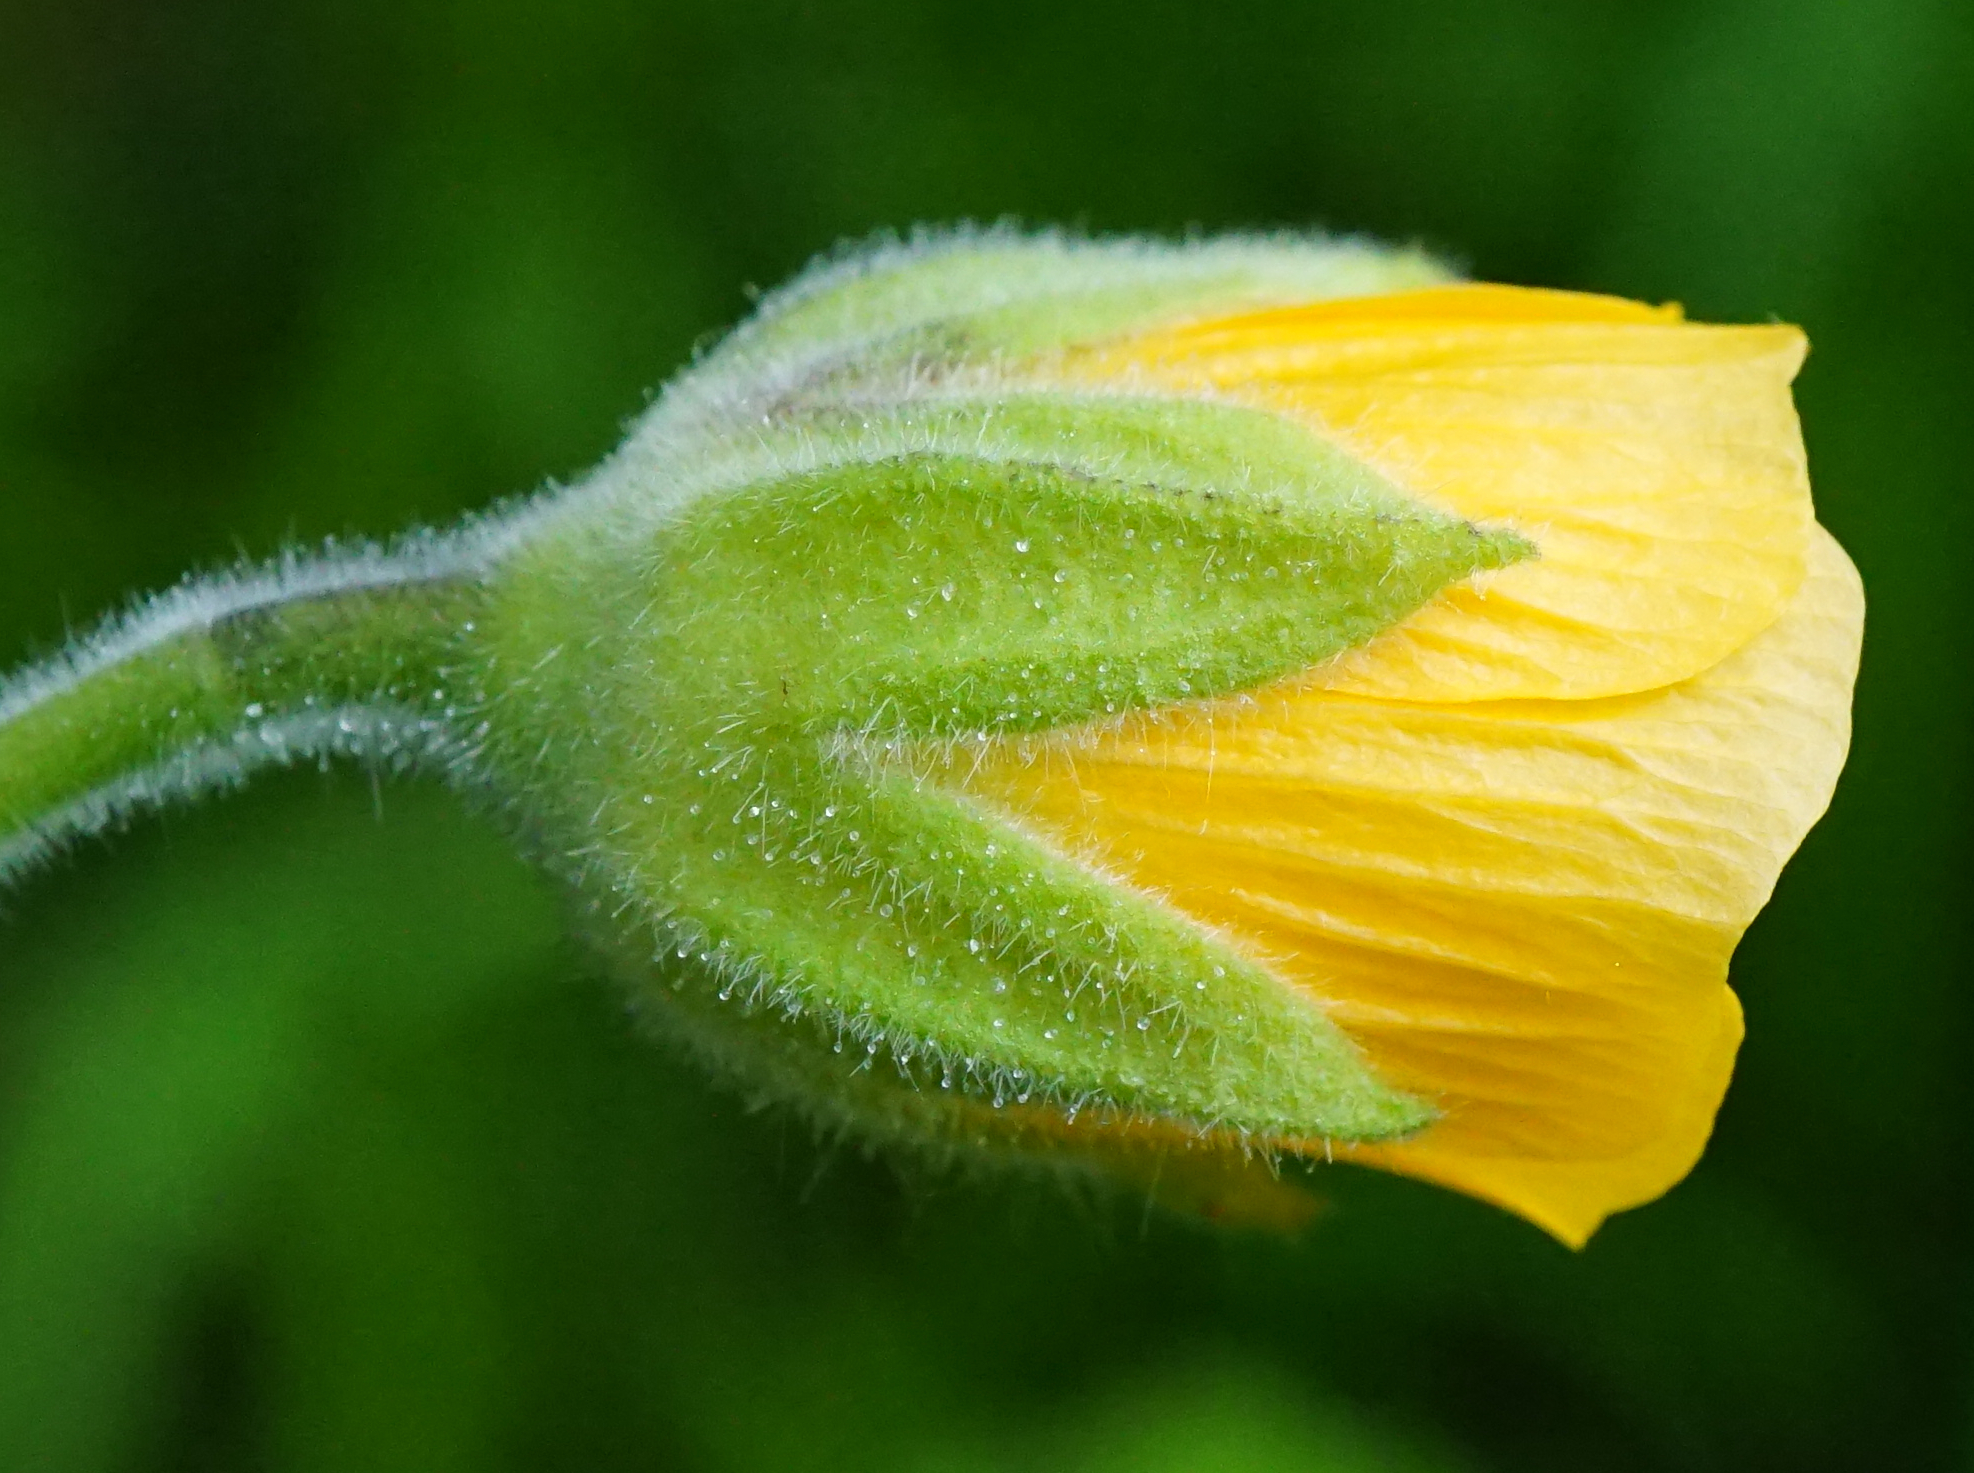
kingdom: Plantae
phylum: Tracheophyta
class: Magnoliopsida
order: Malvales
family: Malvaceae
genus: Abutilon
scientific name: Abutilon theophrasti
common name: Velvetleaf
